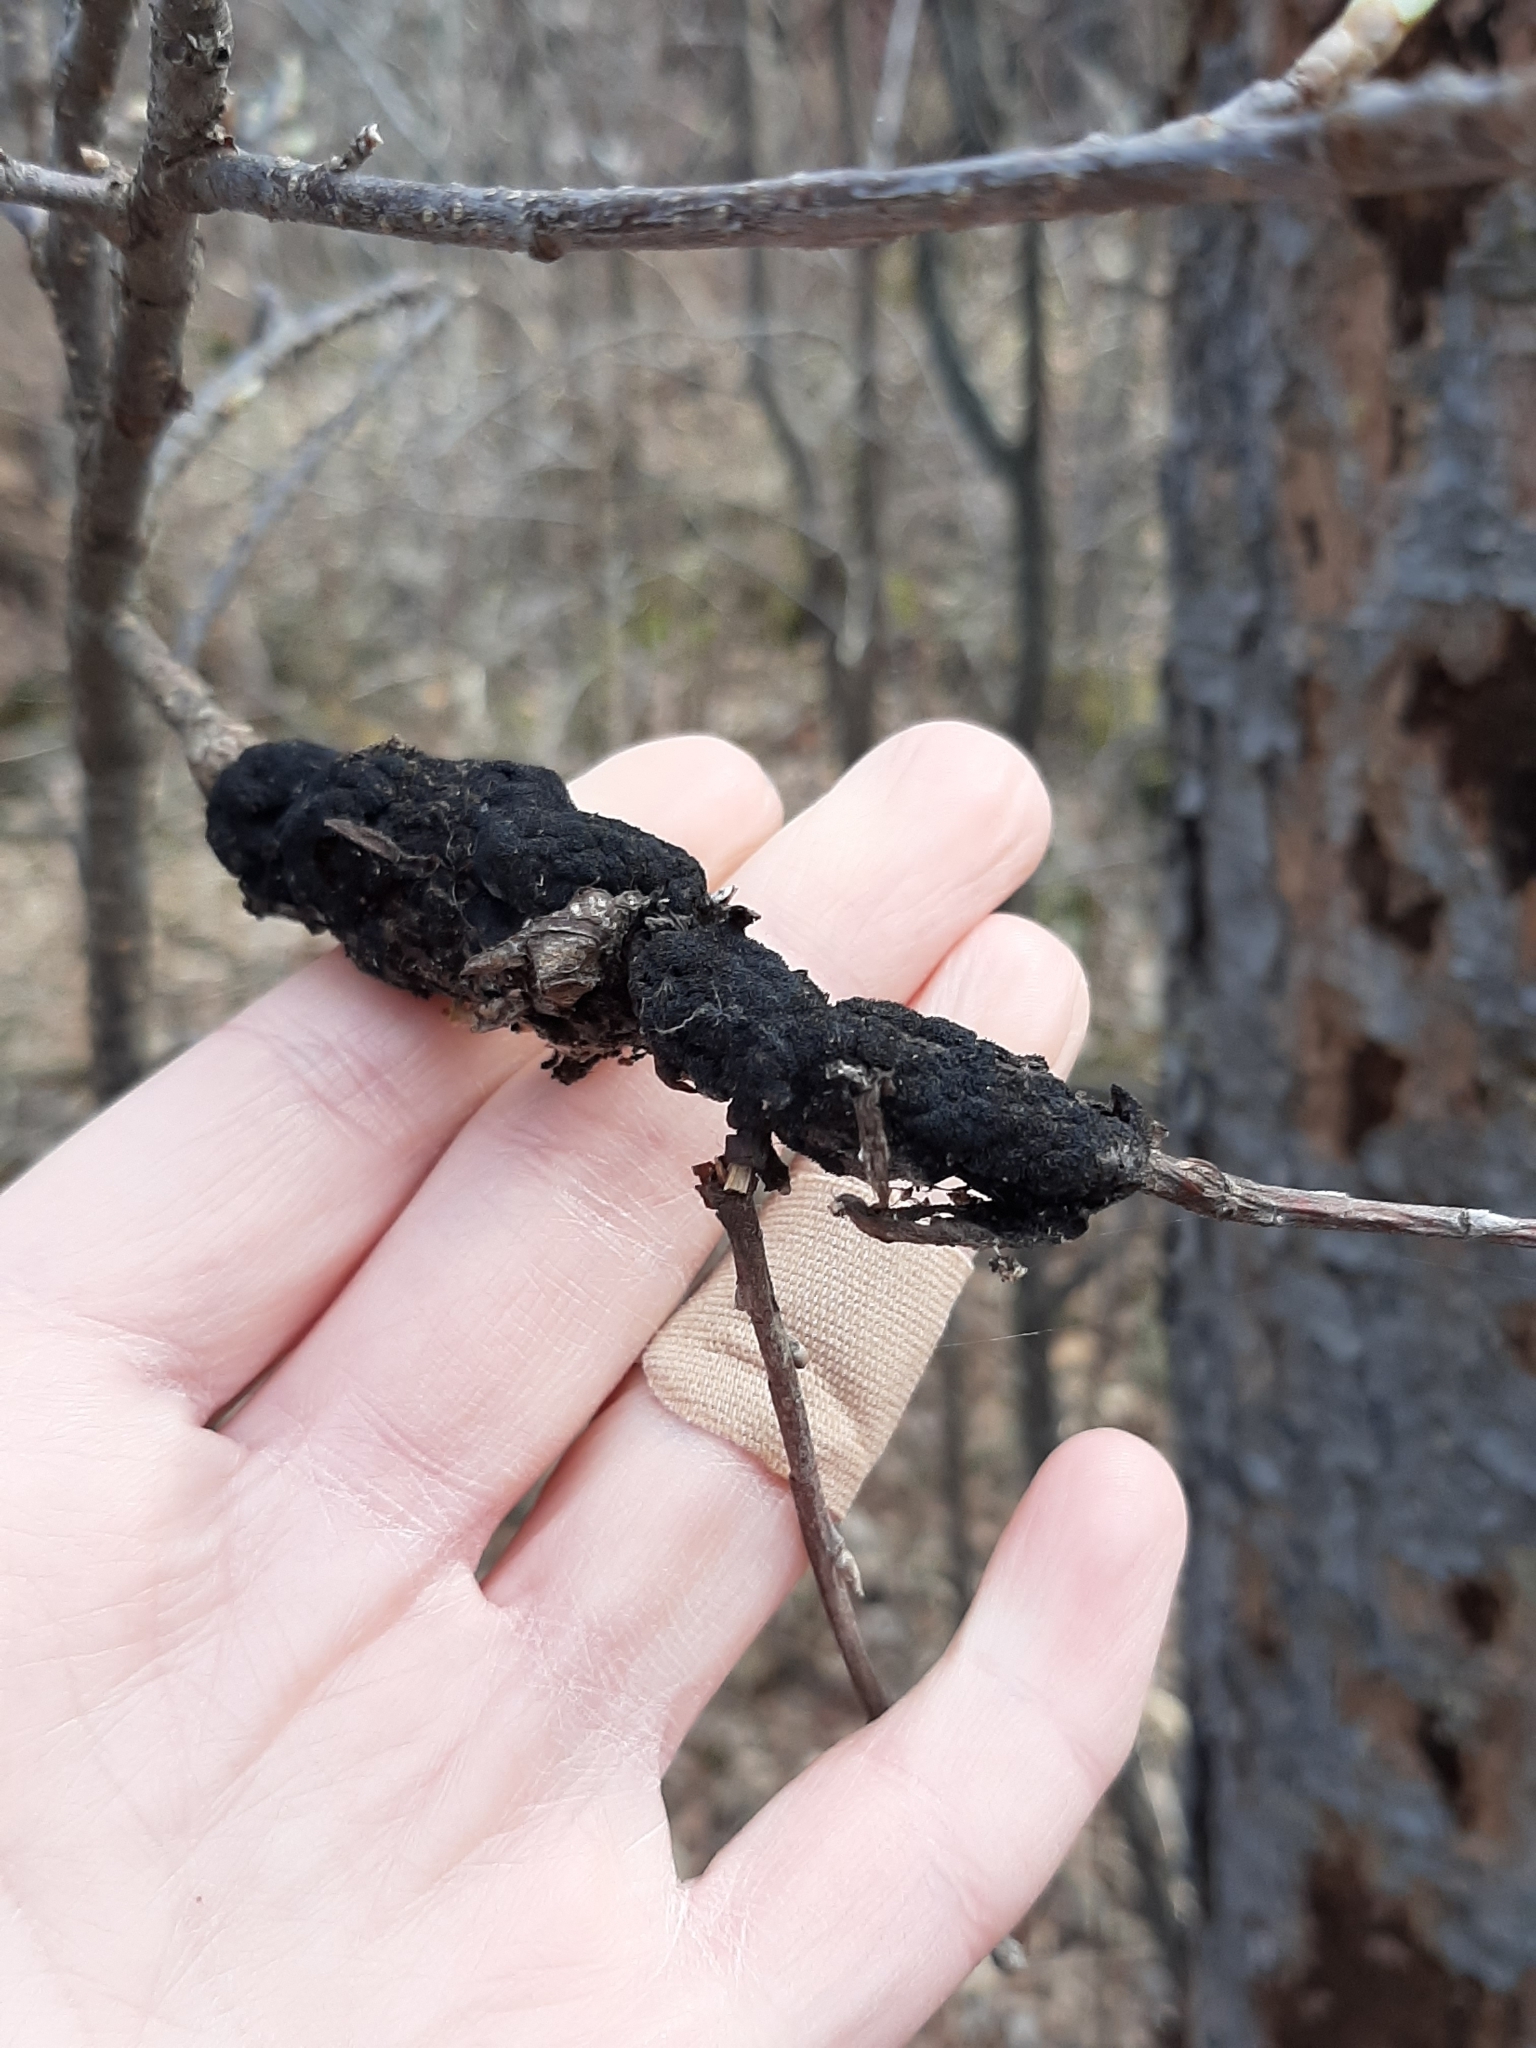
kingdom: Fungi
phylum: Ascomycota
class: Dothideomycetes
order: Venturiales
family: Venturiaceae
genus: Apiosporina
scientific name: Apiosporina morbosa
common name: Black knot
